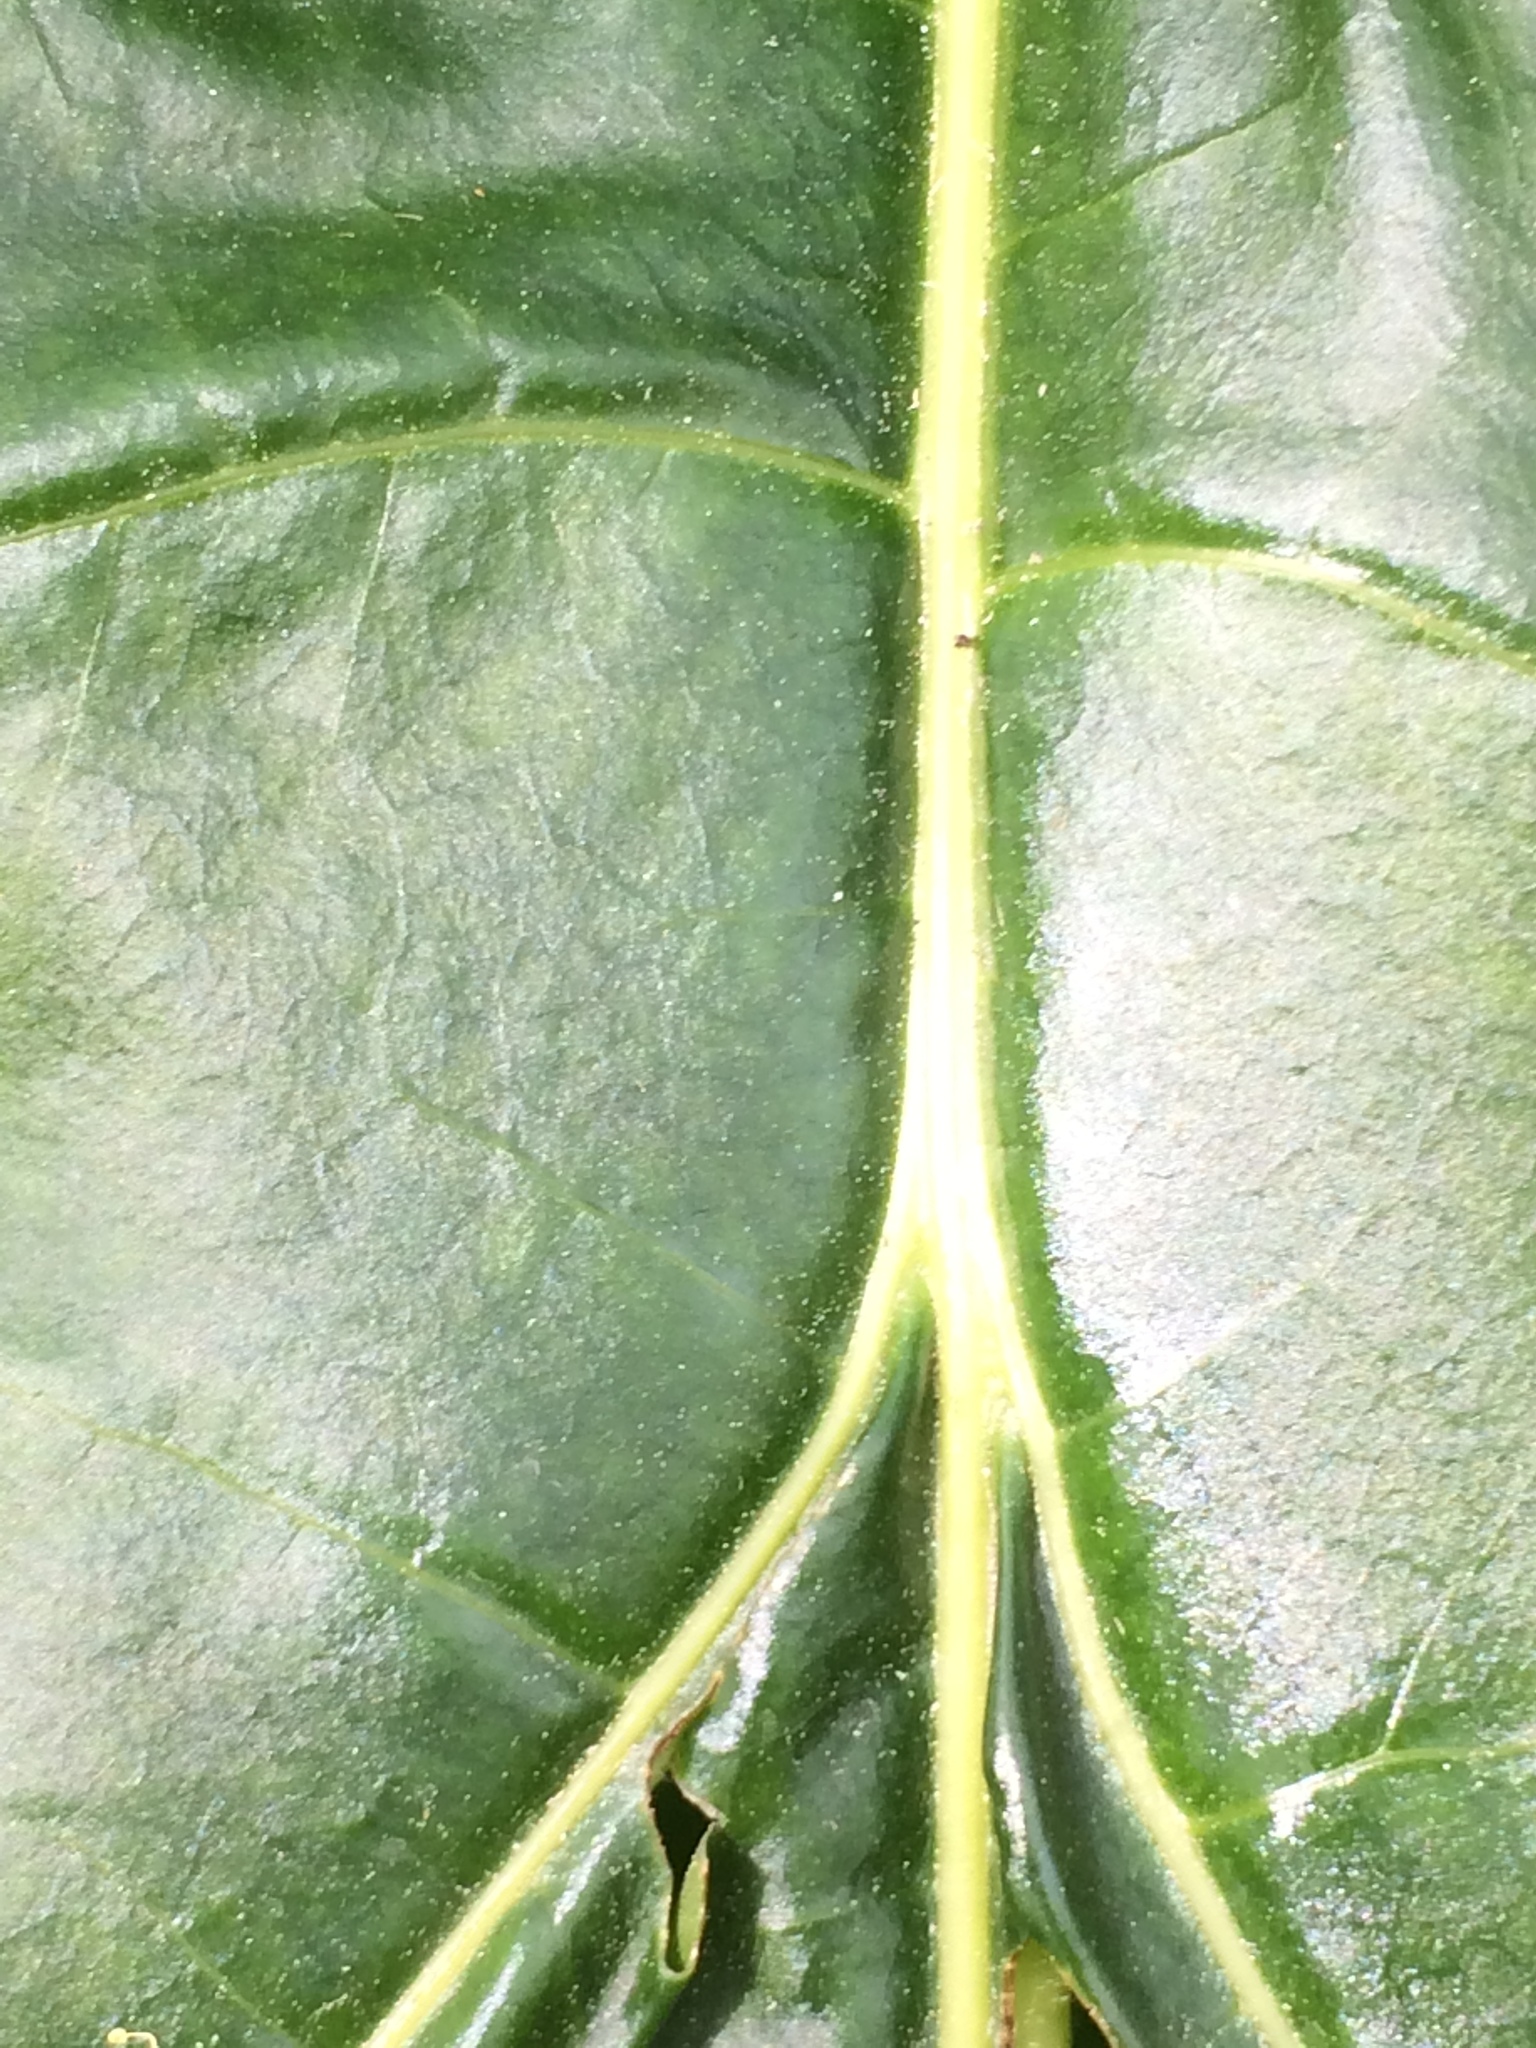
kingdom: Plantae
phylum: Tracheophyta
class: Magnoliopsida
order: Lamiales
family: Acanthaceae
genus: Acanthus
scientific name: Acanthus mollis
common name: Bear's-breech
